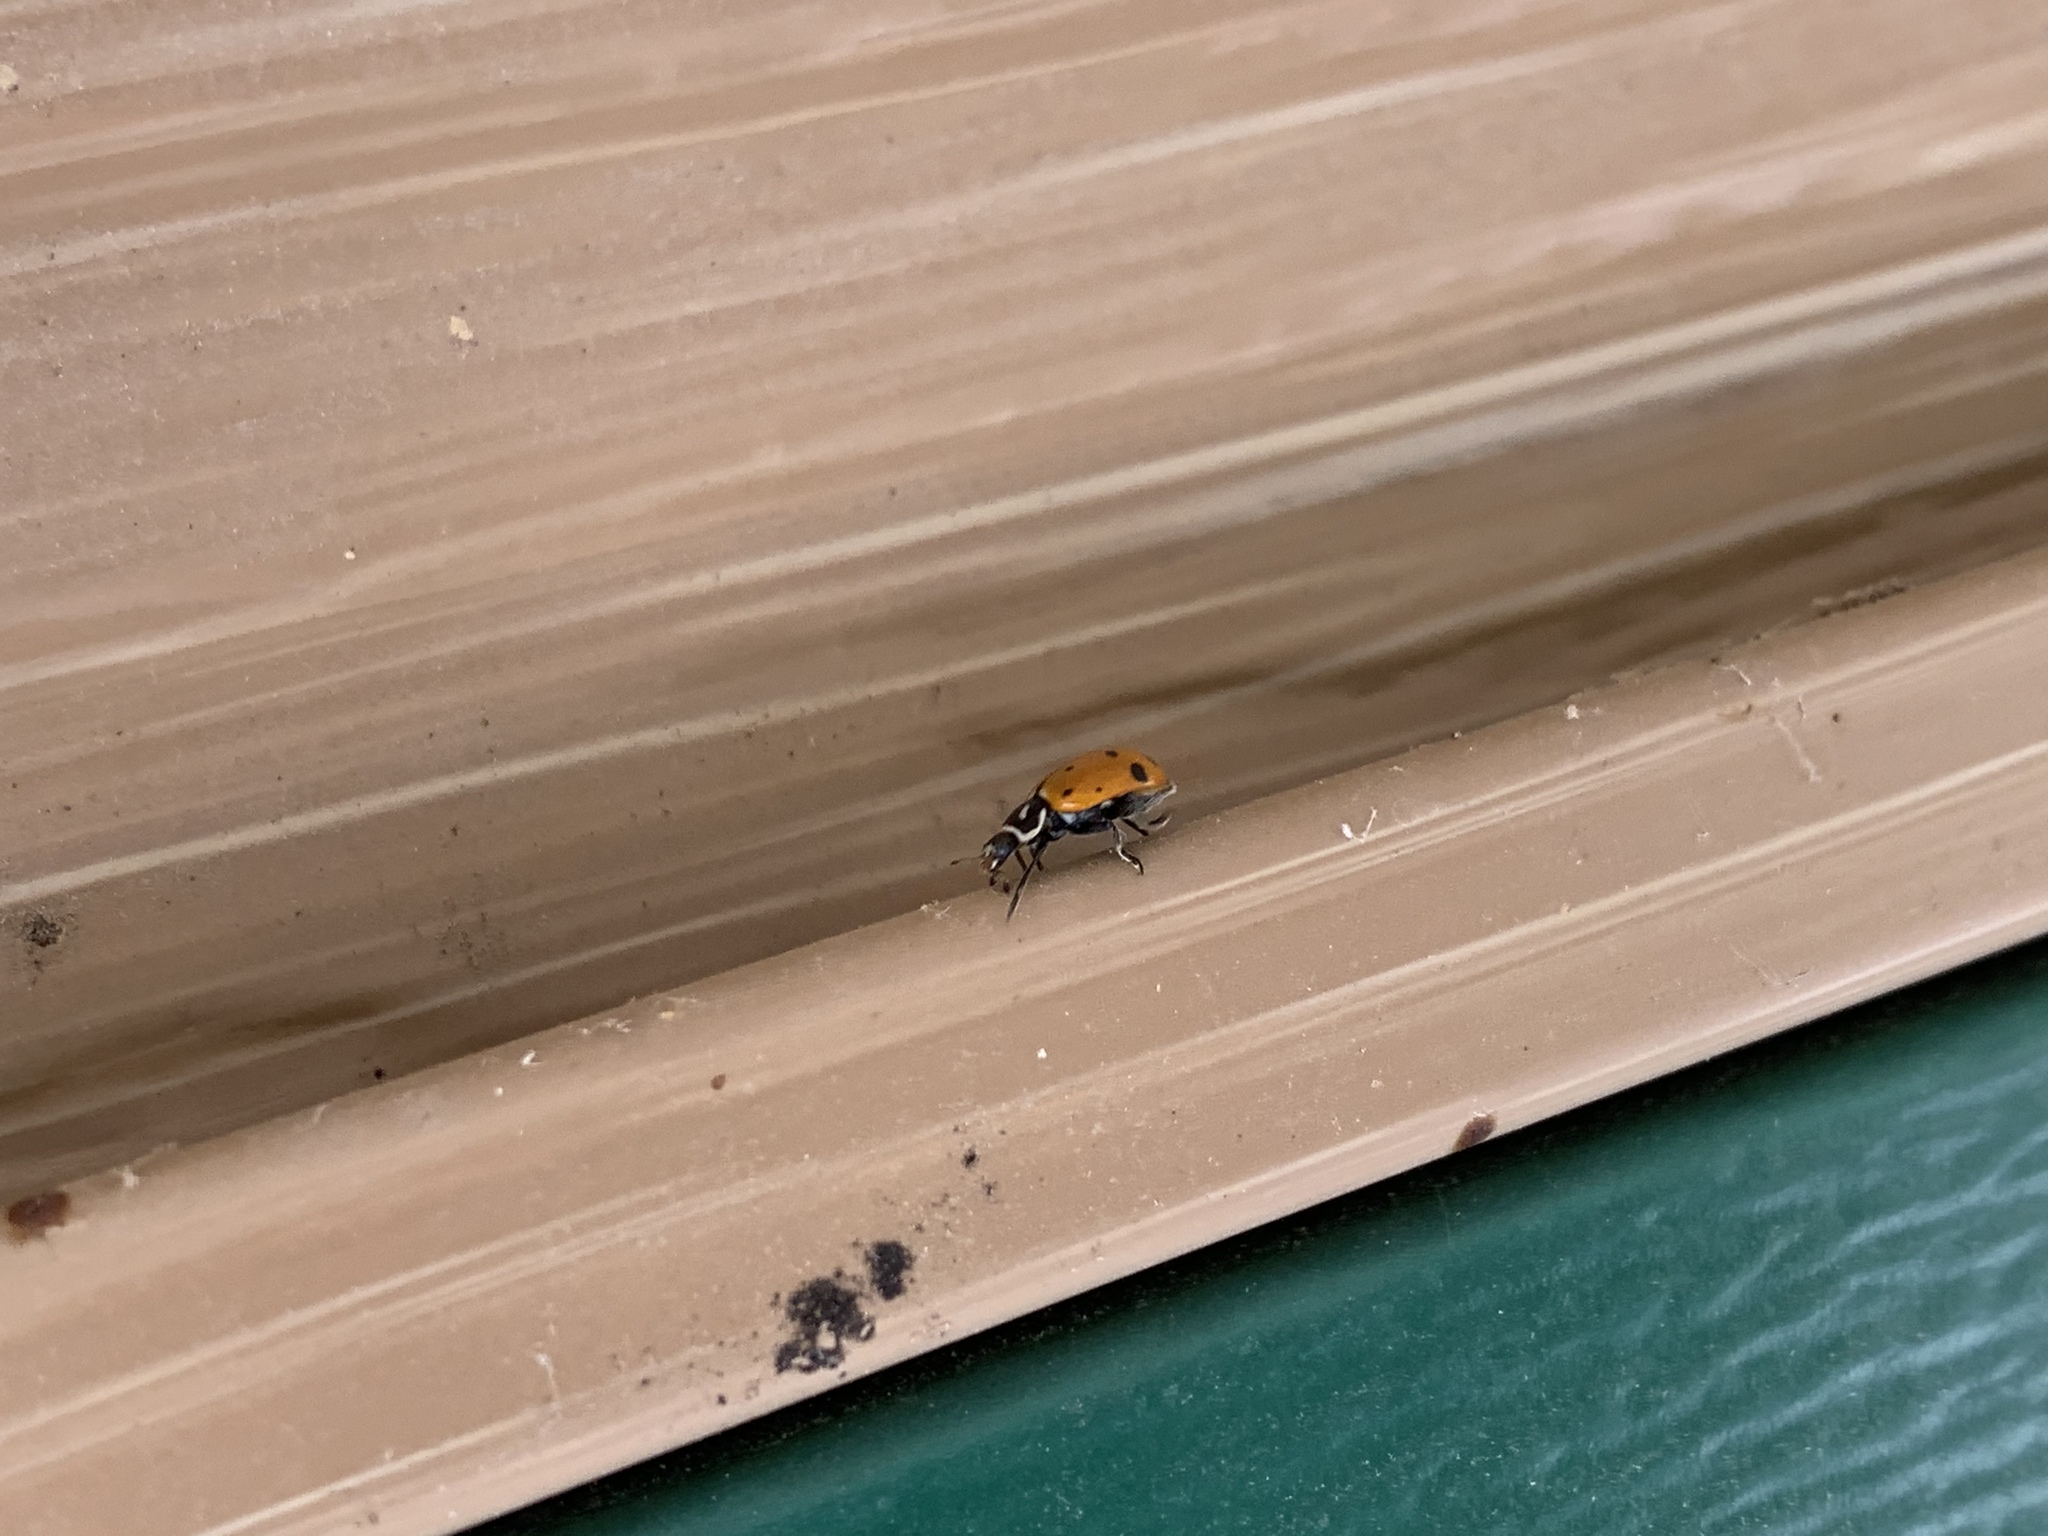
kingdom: Animalia
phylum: Arthropoda
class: Insecta
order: Coleoptera
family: Coccinellidae
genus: Hippodamia
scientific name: Hippodamia convergens
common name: Convergent lady beetle
